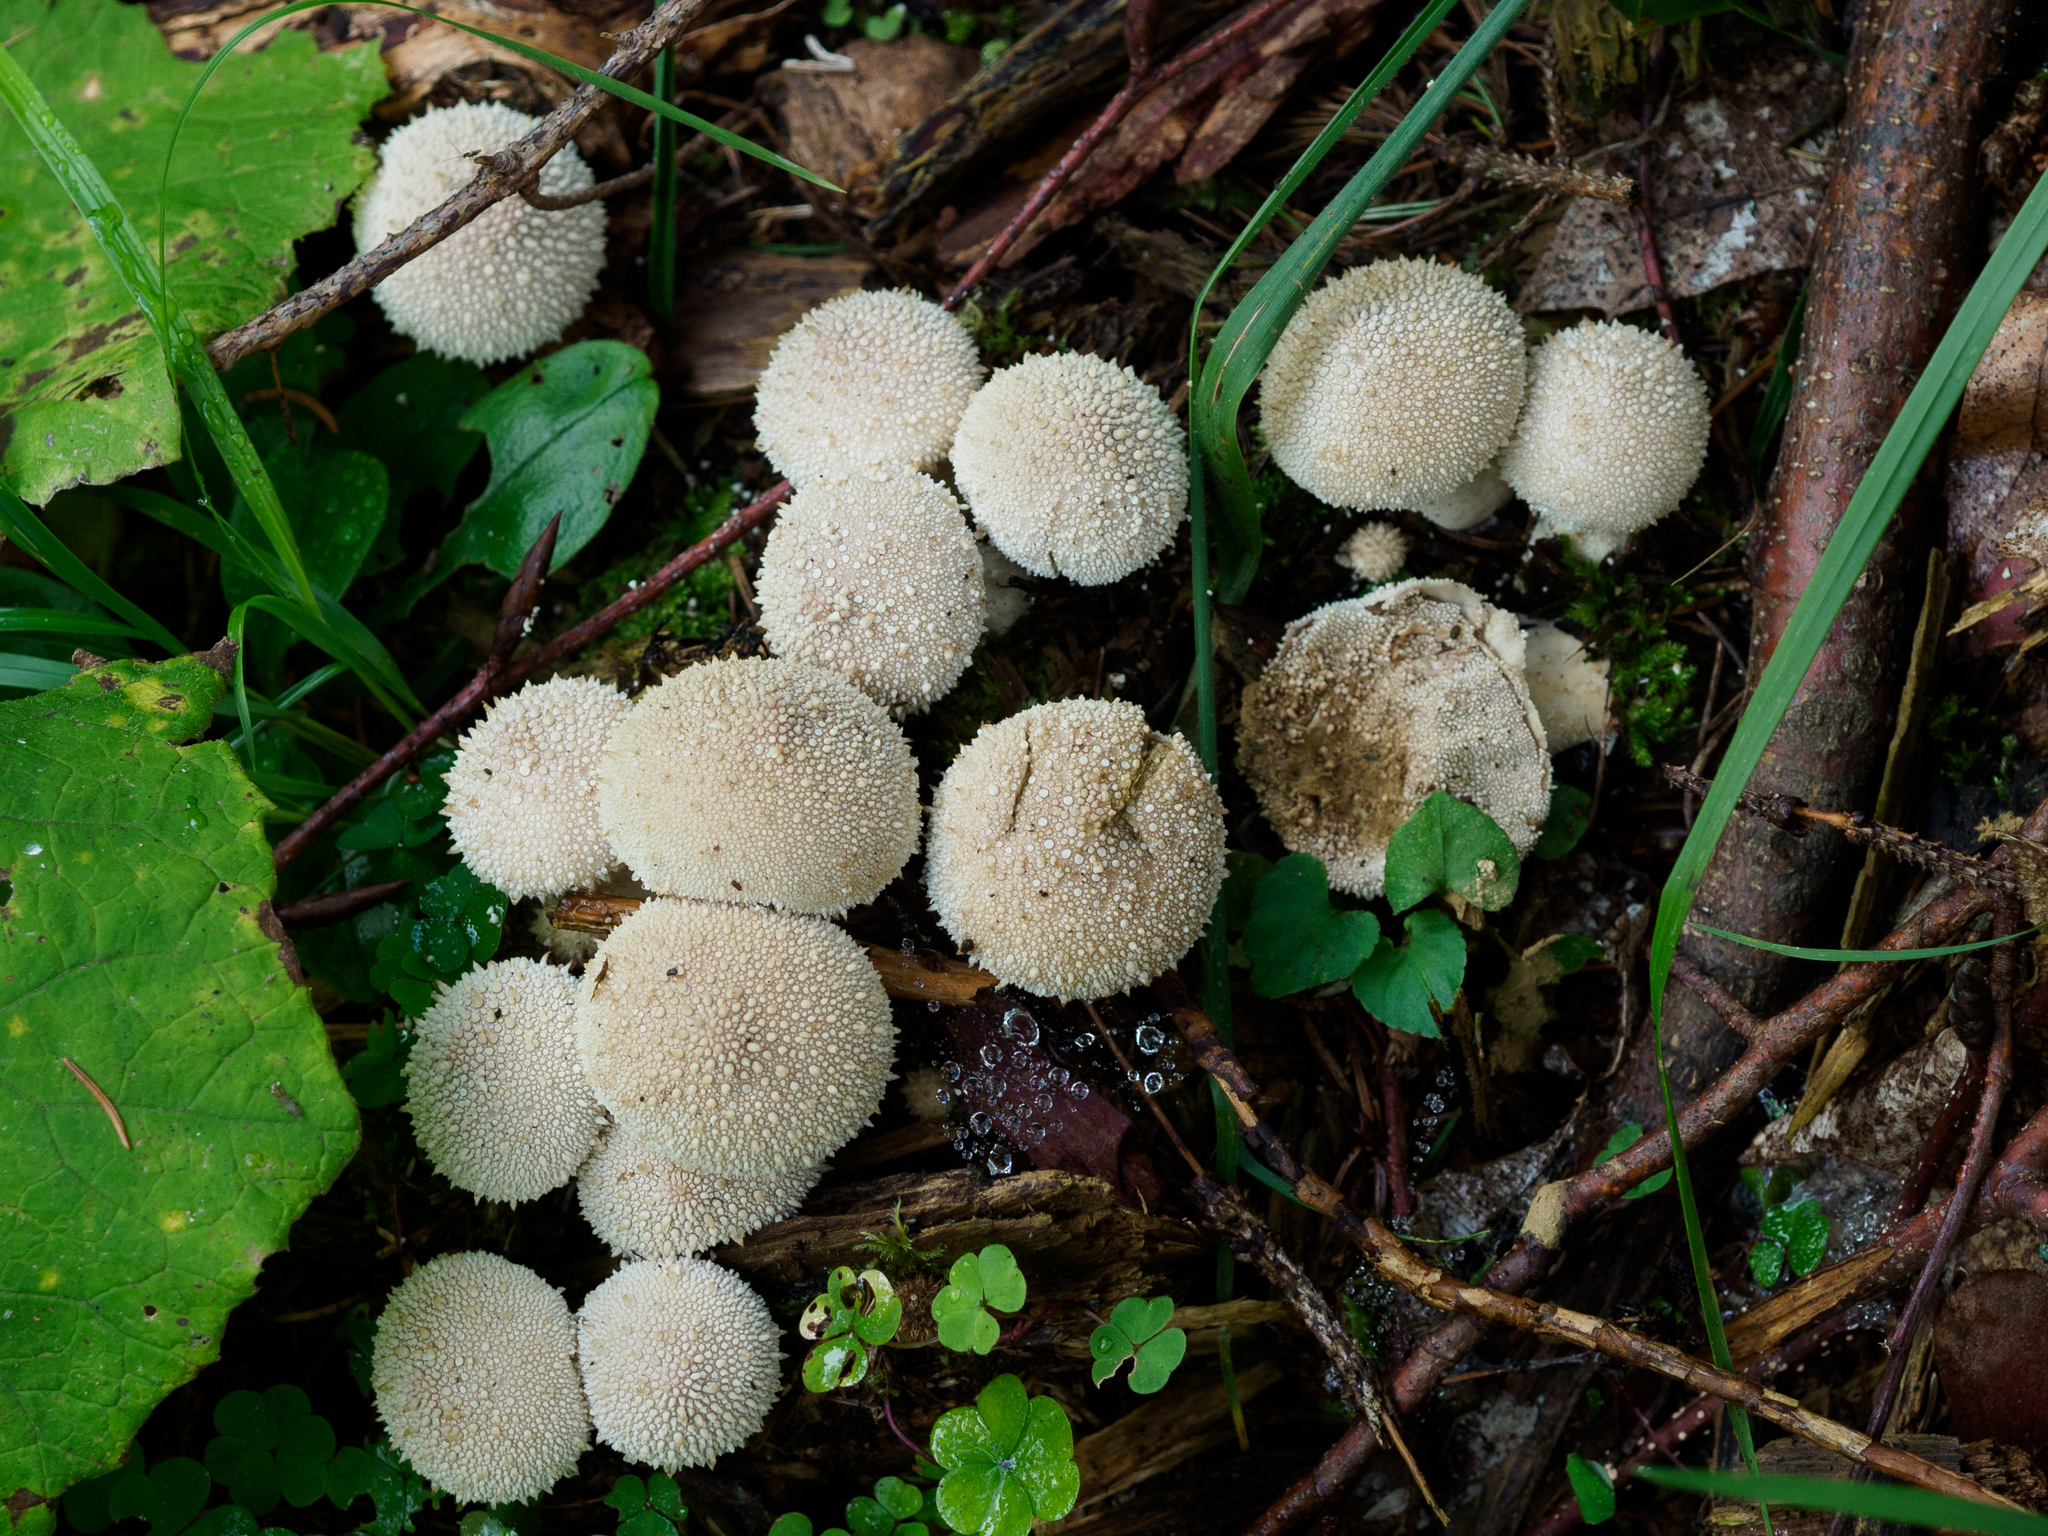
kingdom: Fungi
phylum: Basidiomycota
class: Agaricomycetes
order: Agaricales
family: Lycoperdaceae
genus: Lycoperdon
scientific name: Lycoperdon perlatum
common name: Common puffball
